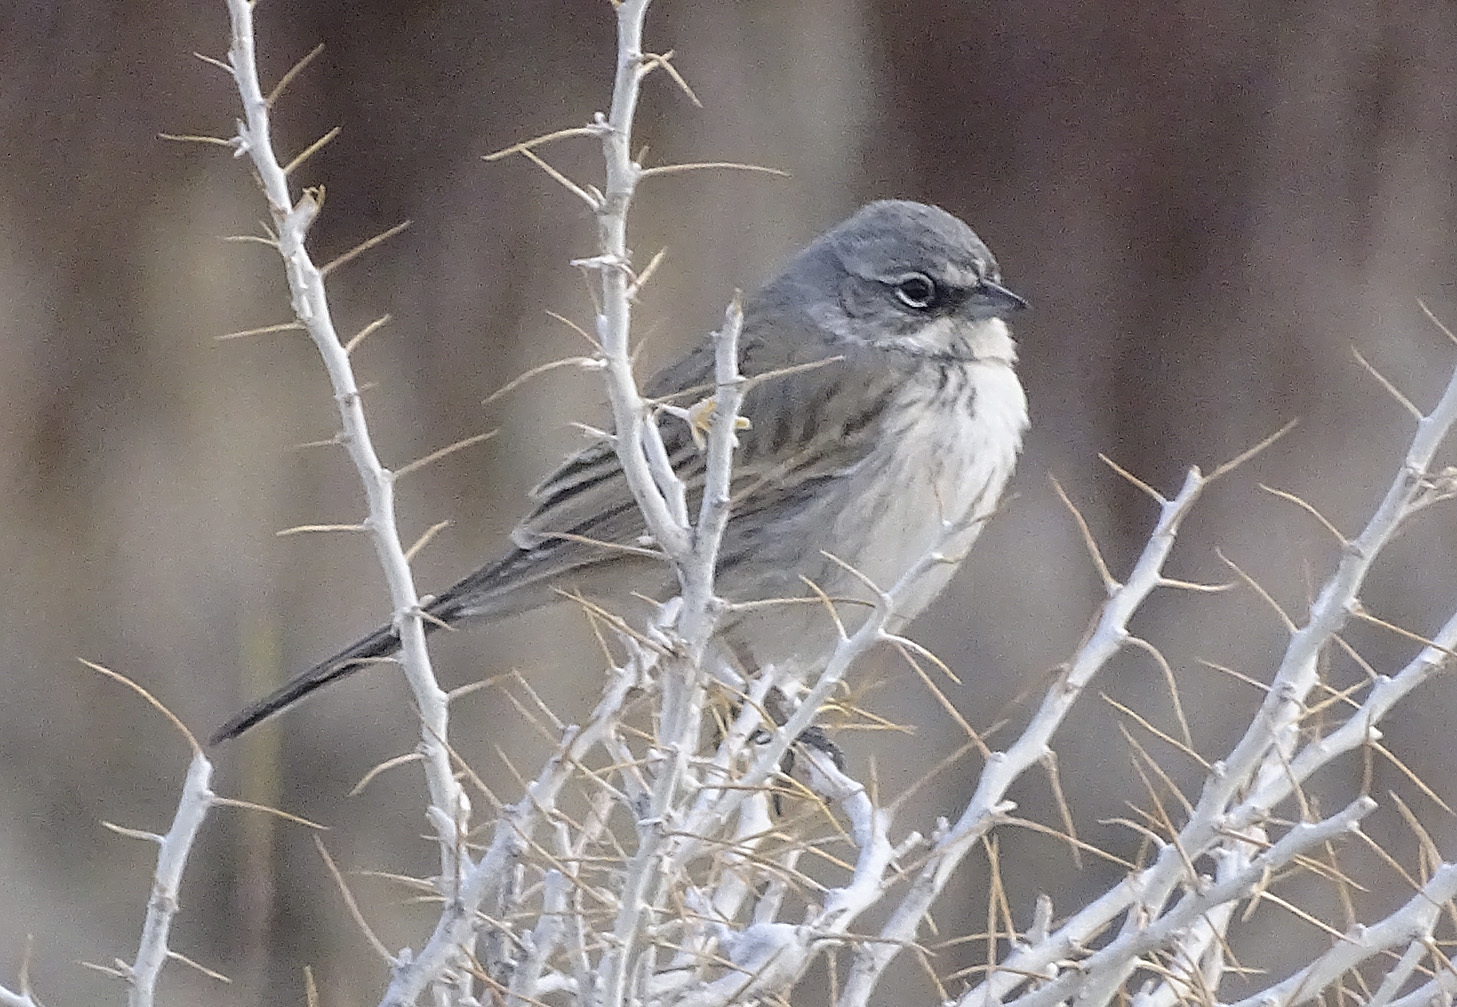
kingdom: Animalia
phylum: Chordata
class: Aves
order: Passeriformes
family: Passerellidae
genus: Artemisiospiza
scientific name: Artemisiospiza nevadensis
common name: Sagebrush sparrow
